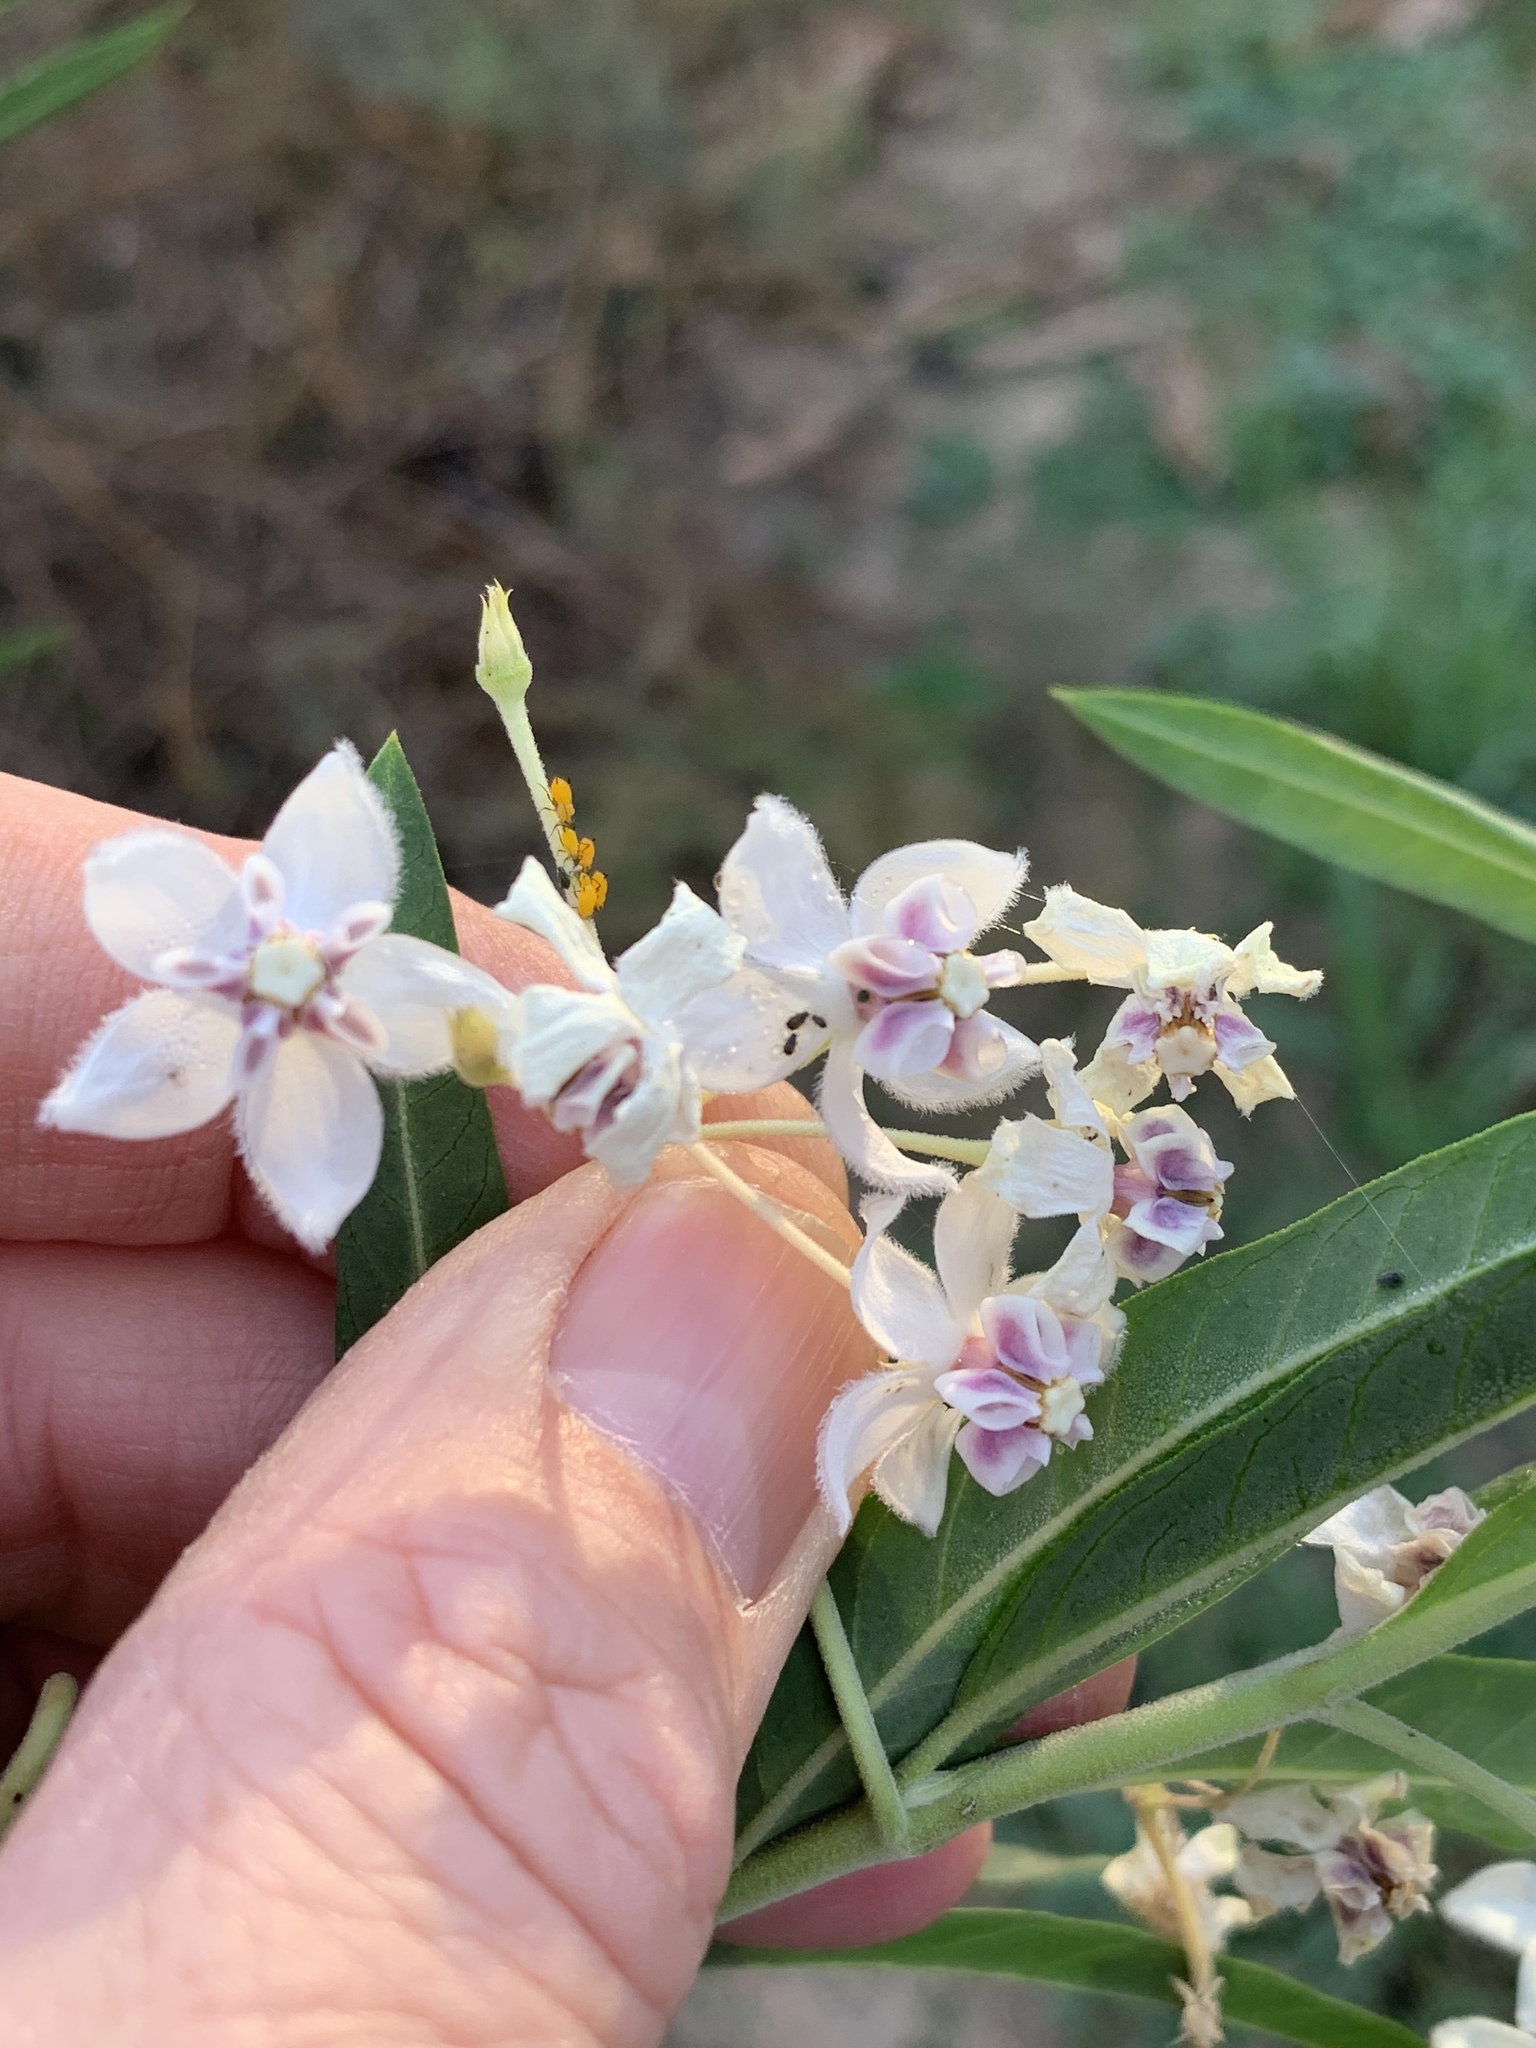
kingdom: Plantae
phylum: Tracheophyta
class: Magnoliopsida
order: Gentianales
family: Apocynaceae
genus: Gomphocarpus
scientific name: Gomphocarpus physocarpus
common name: Balloon cotton bush
